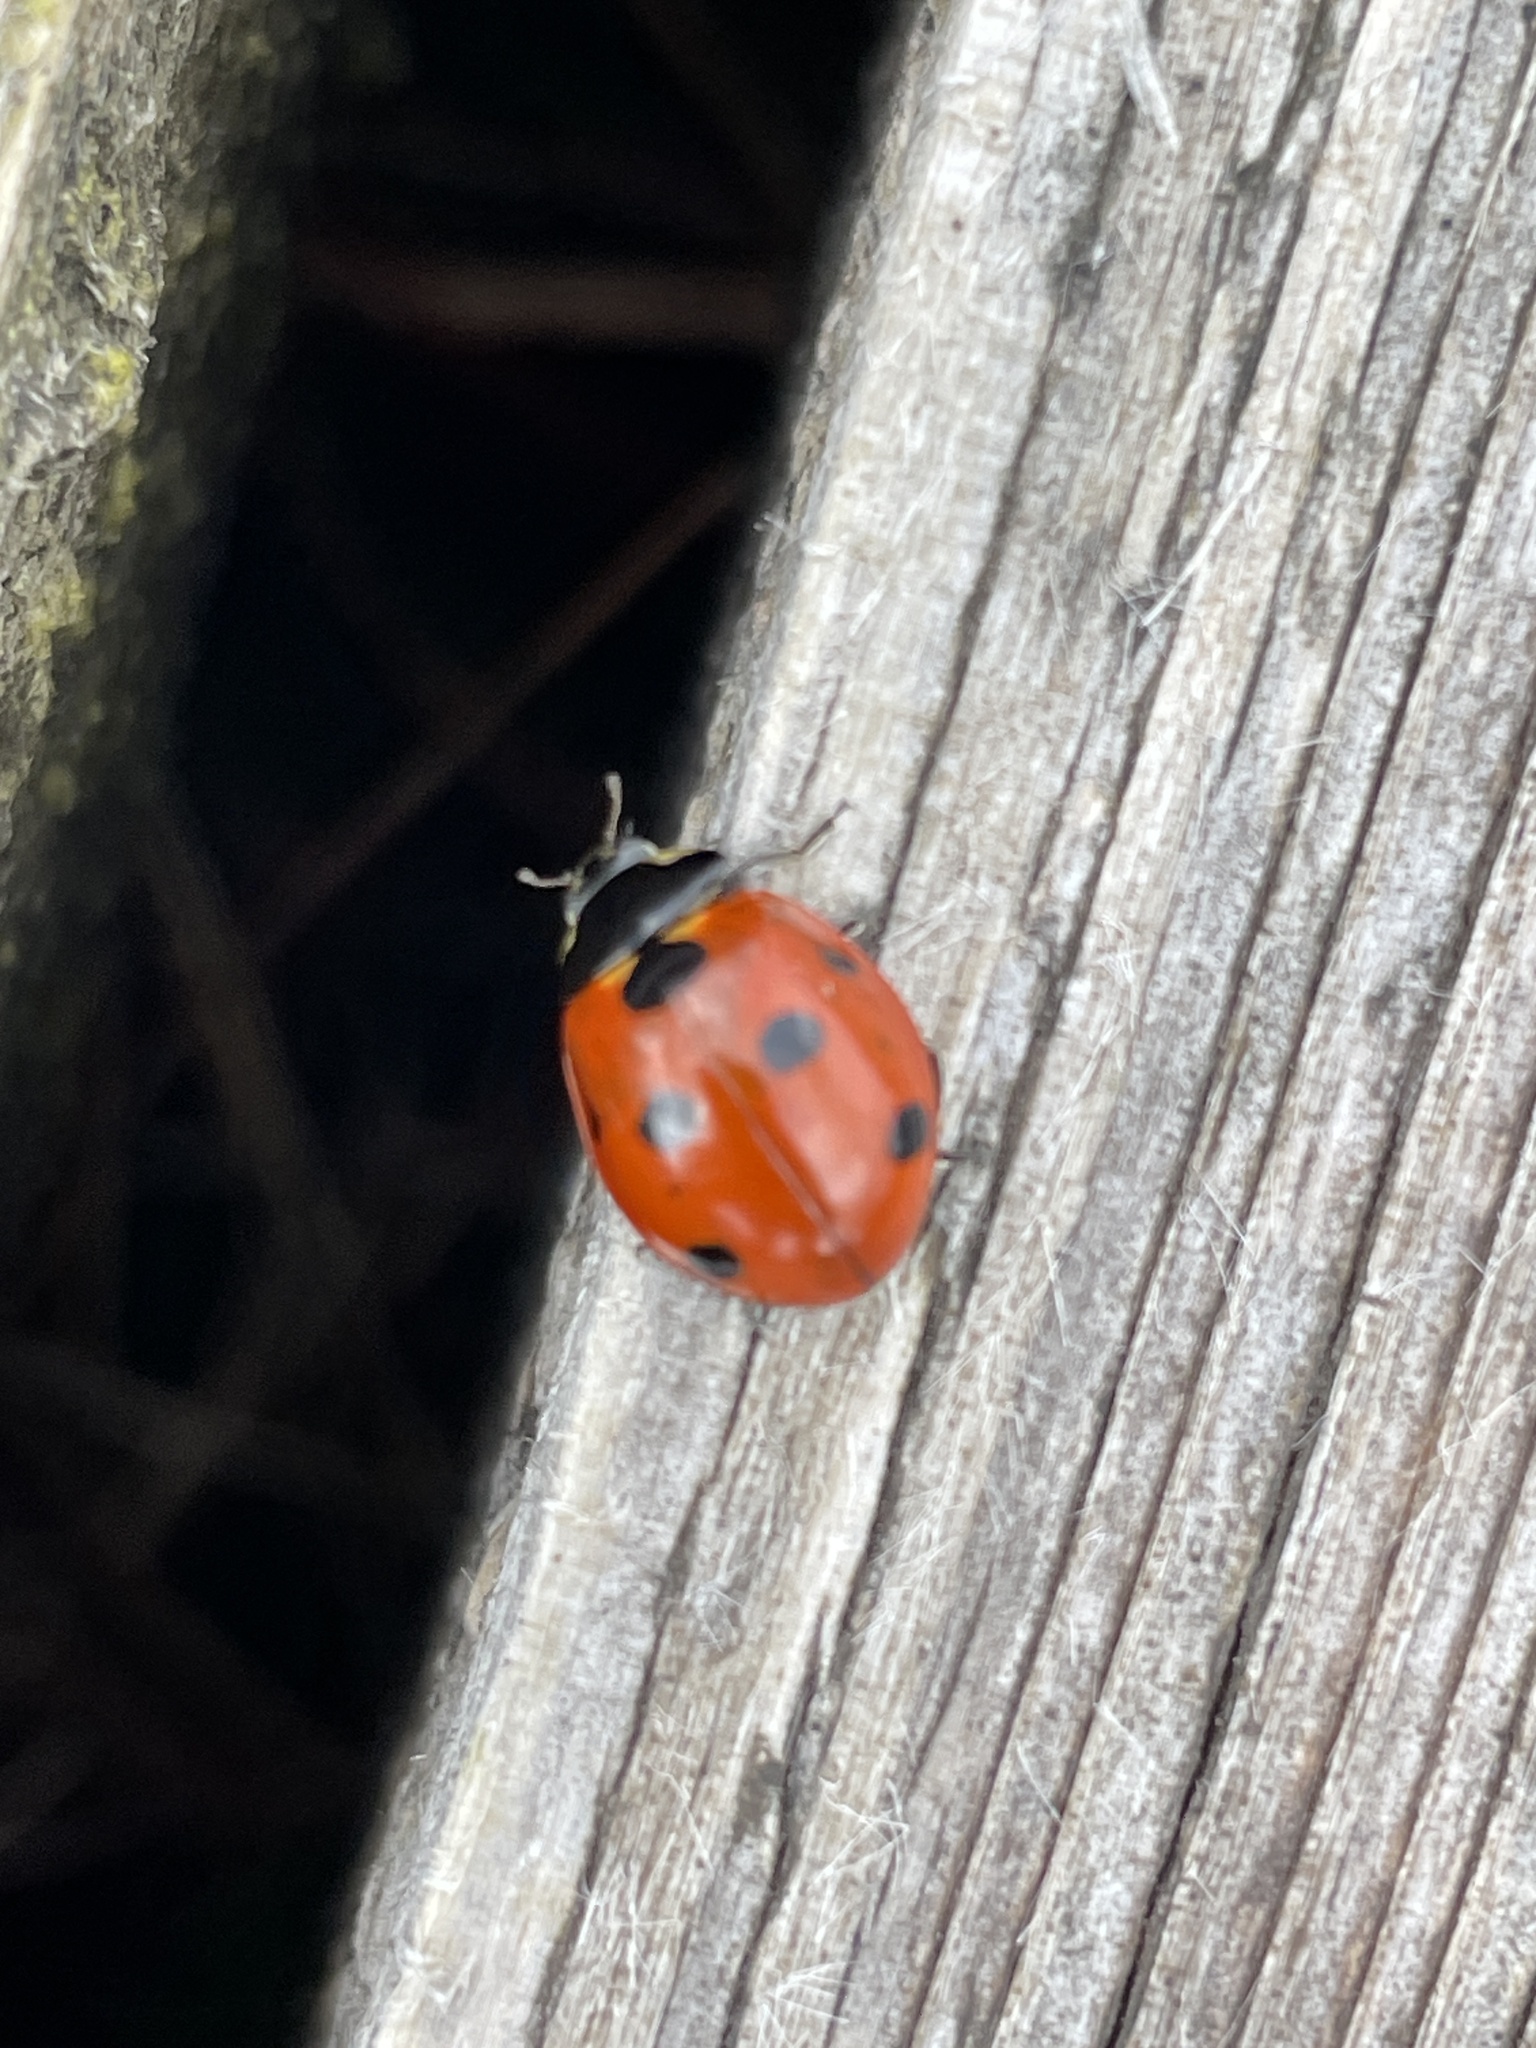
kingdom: Animalia
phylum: Arthropoda
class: Insecta
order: Coleoptera
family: Coccinellidae
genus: Coccinella
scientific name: Coccinella septempunctata
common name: Sevenspotted lady beetle
